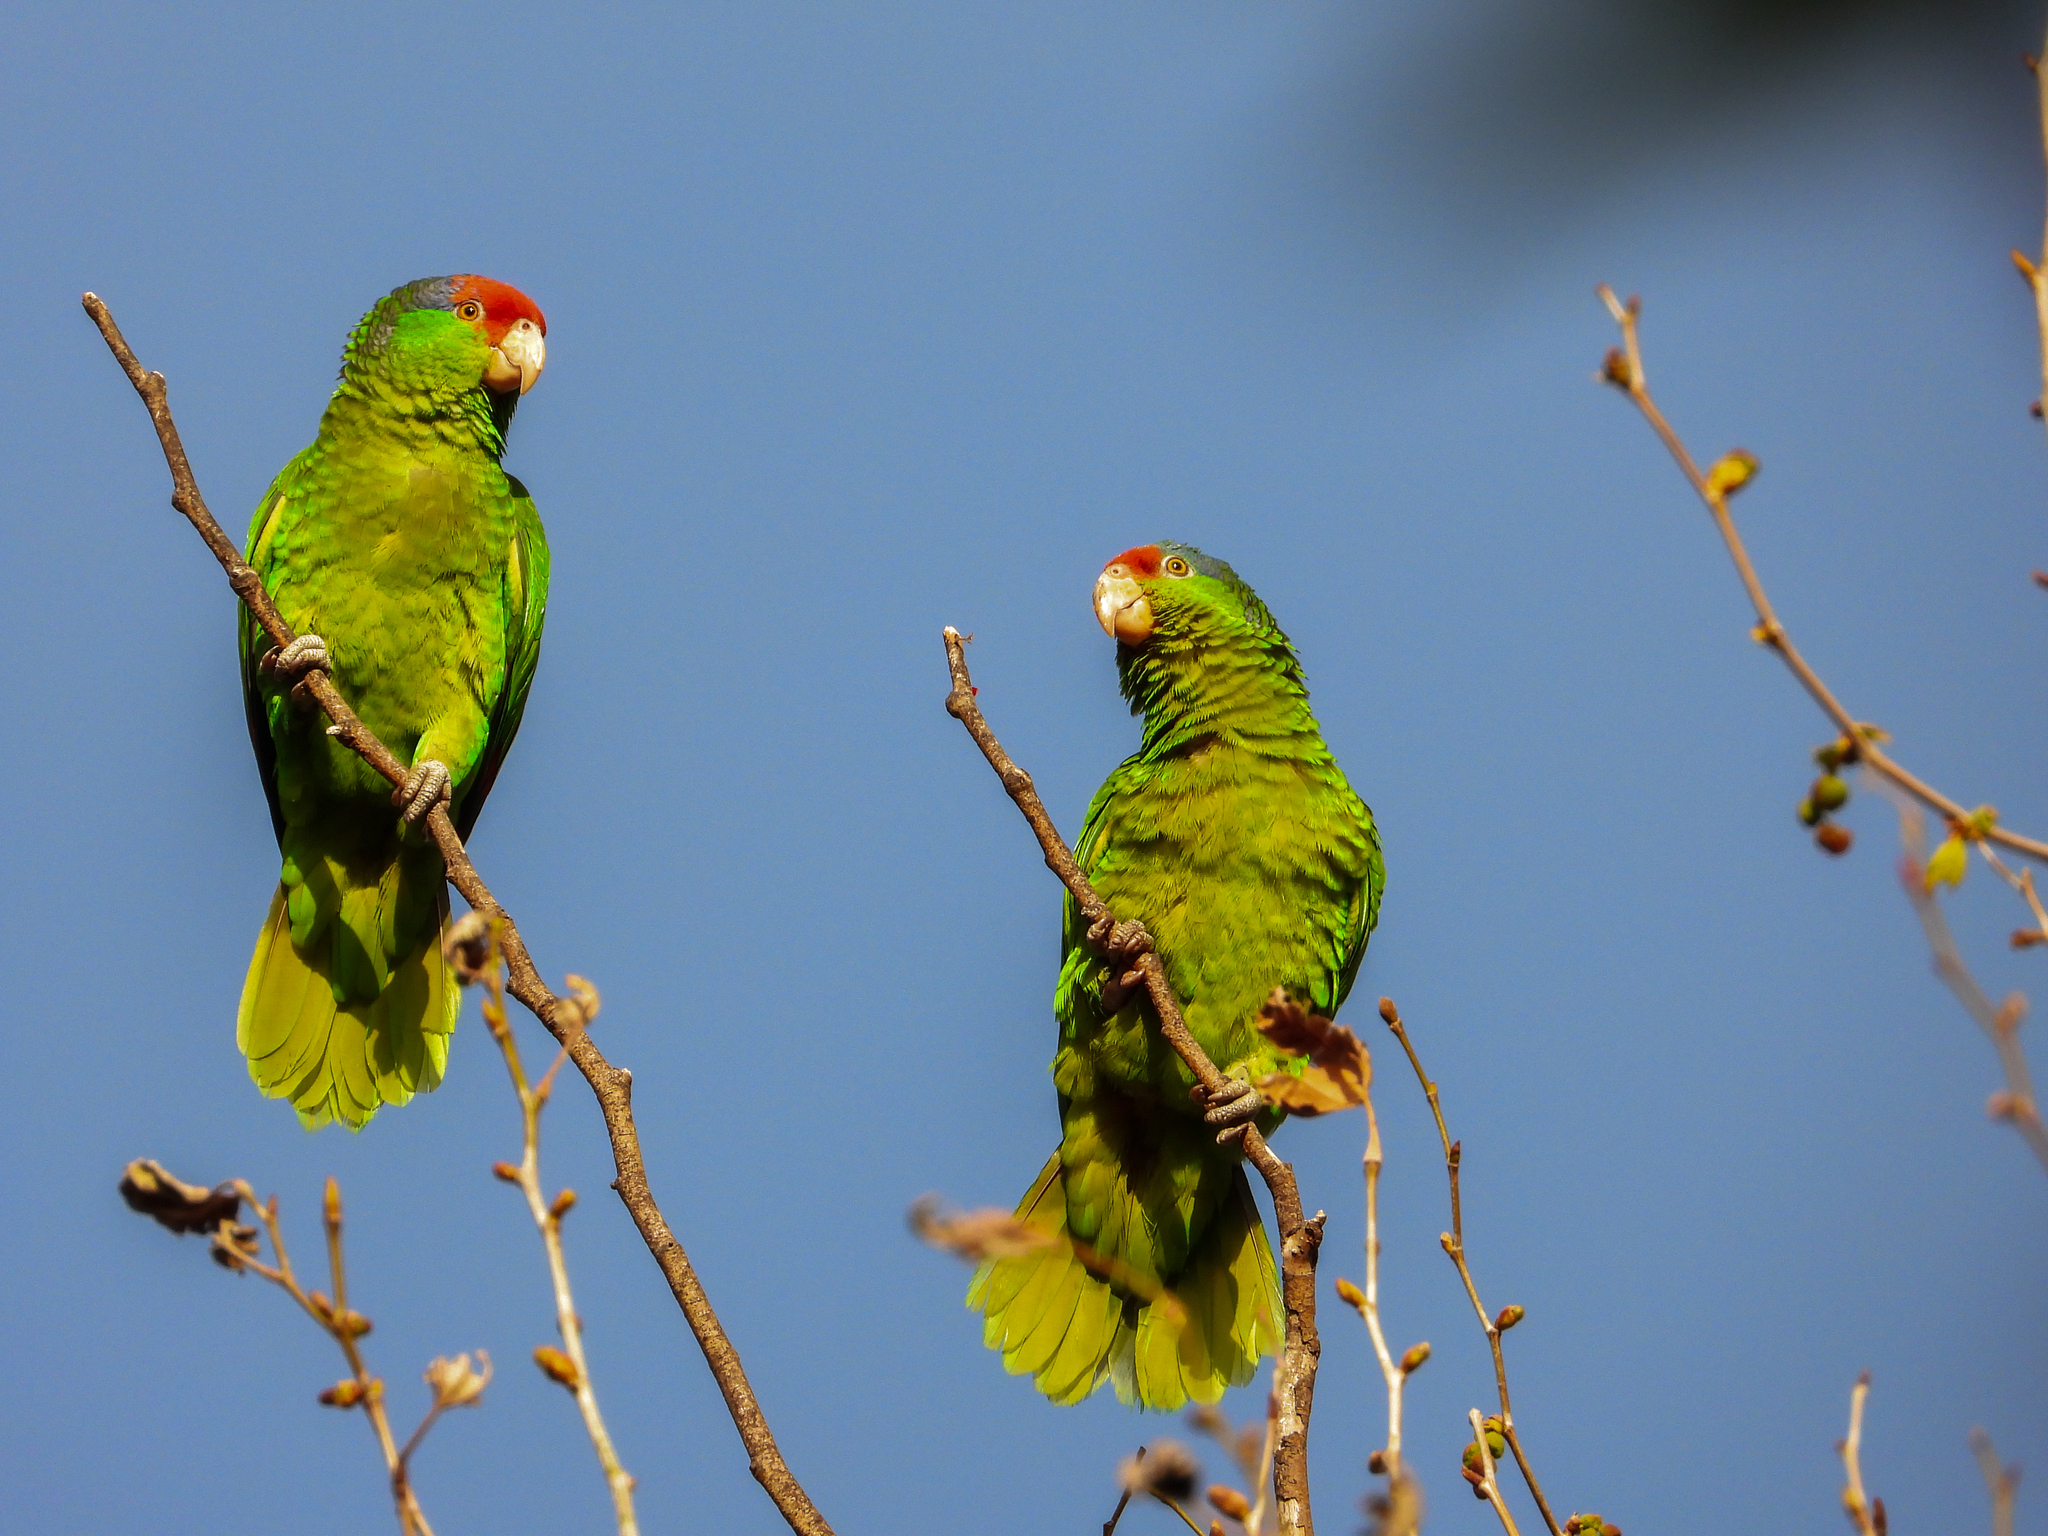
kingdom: Animalia
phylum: Chordata
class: Aves
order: Psittaciformes
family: Psittacidae
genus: Amazona
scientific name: Amazona viridigenalis
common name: Red-crowned amazon
